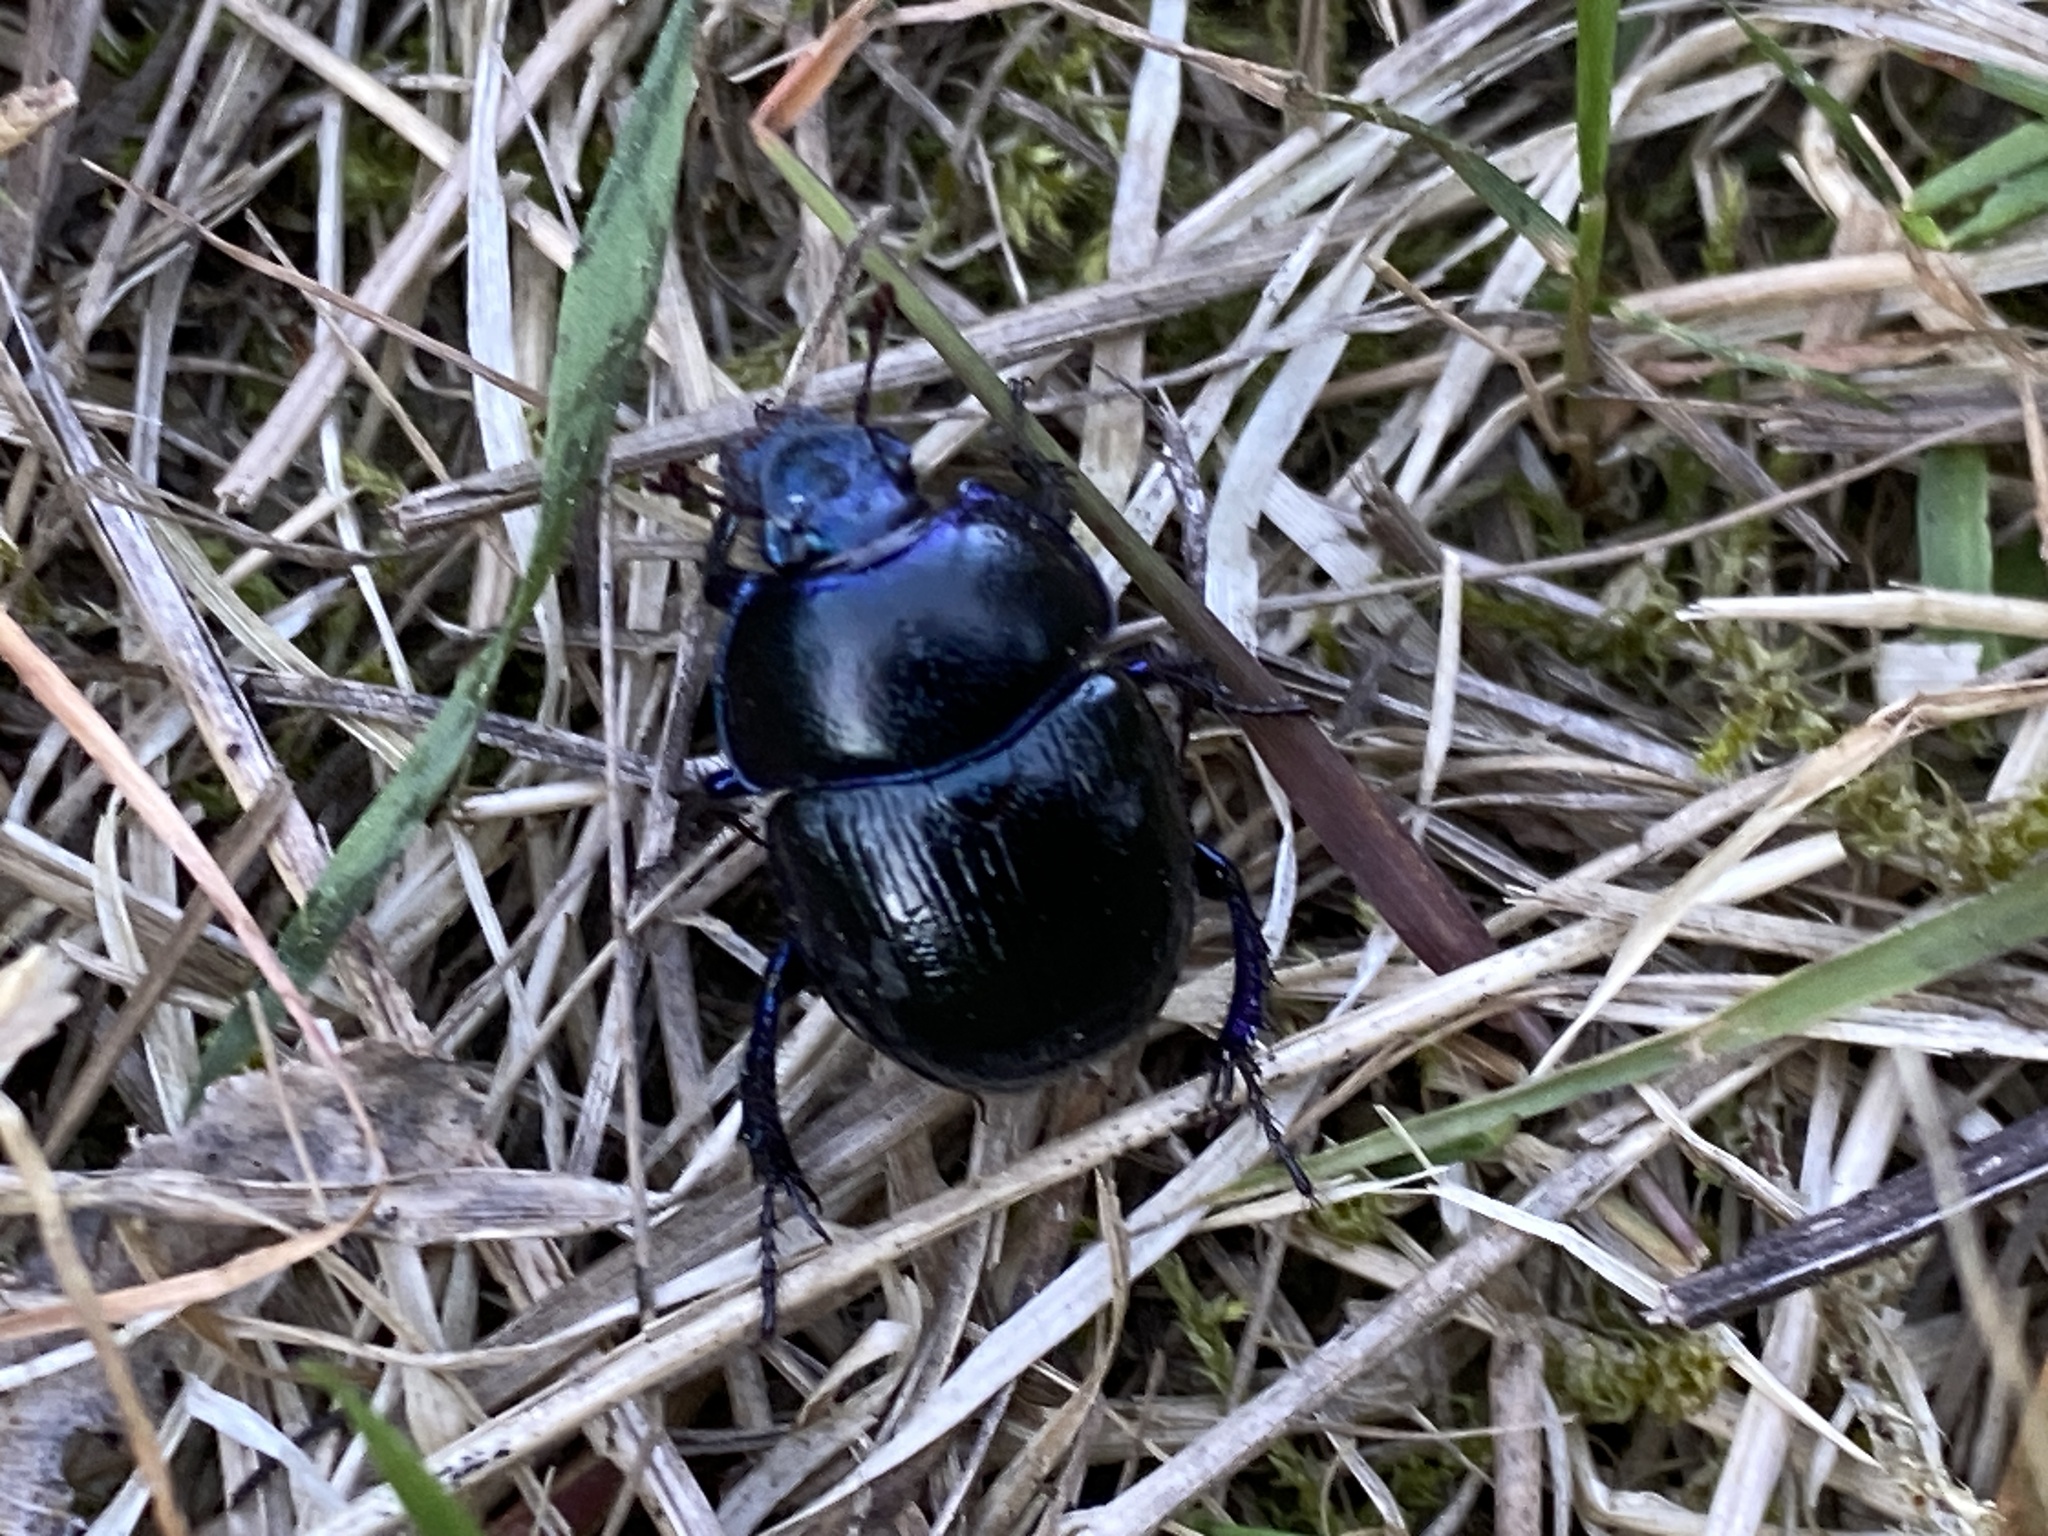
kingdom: Animalia
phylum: Arthropoda
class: Insecta
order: Coleoptera
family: Geotrupidae
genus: Anoplotrupes
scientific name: Anoplotrupes stercorosus
